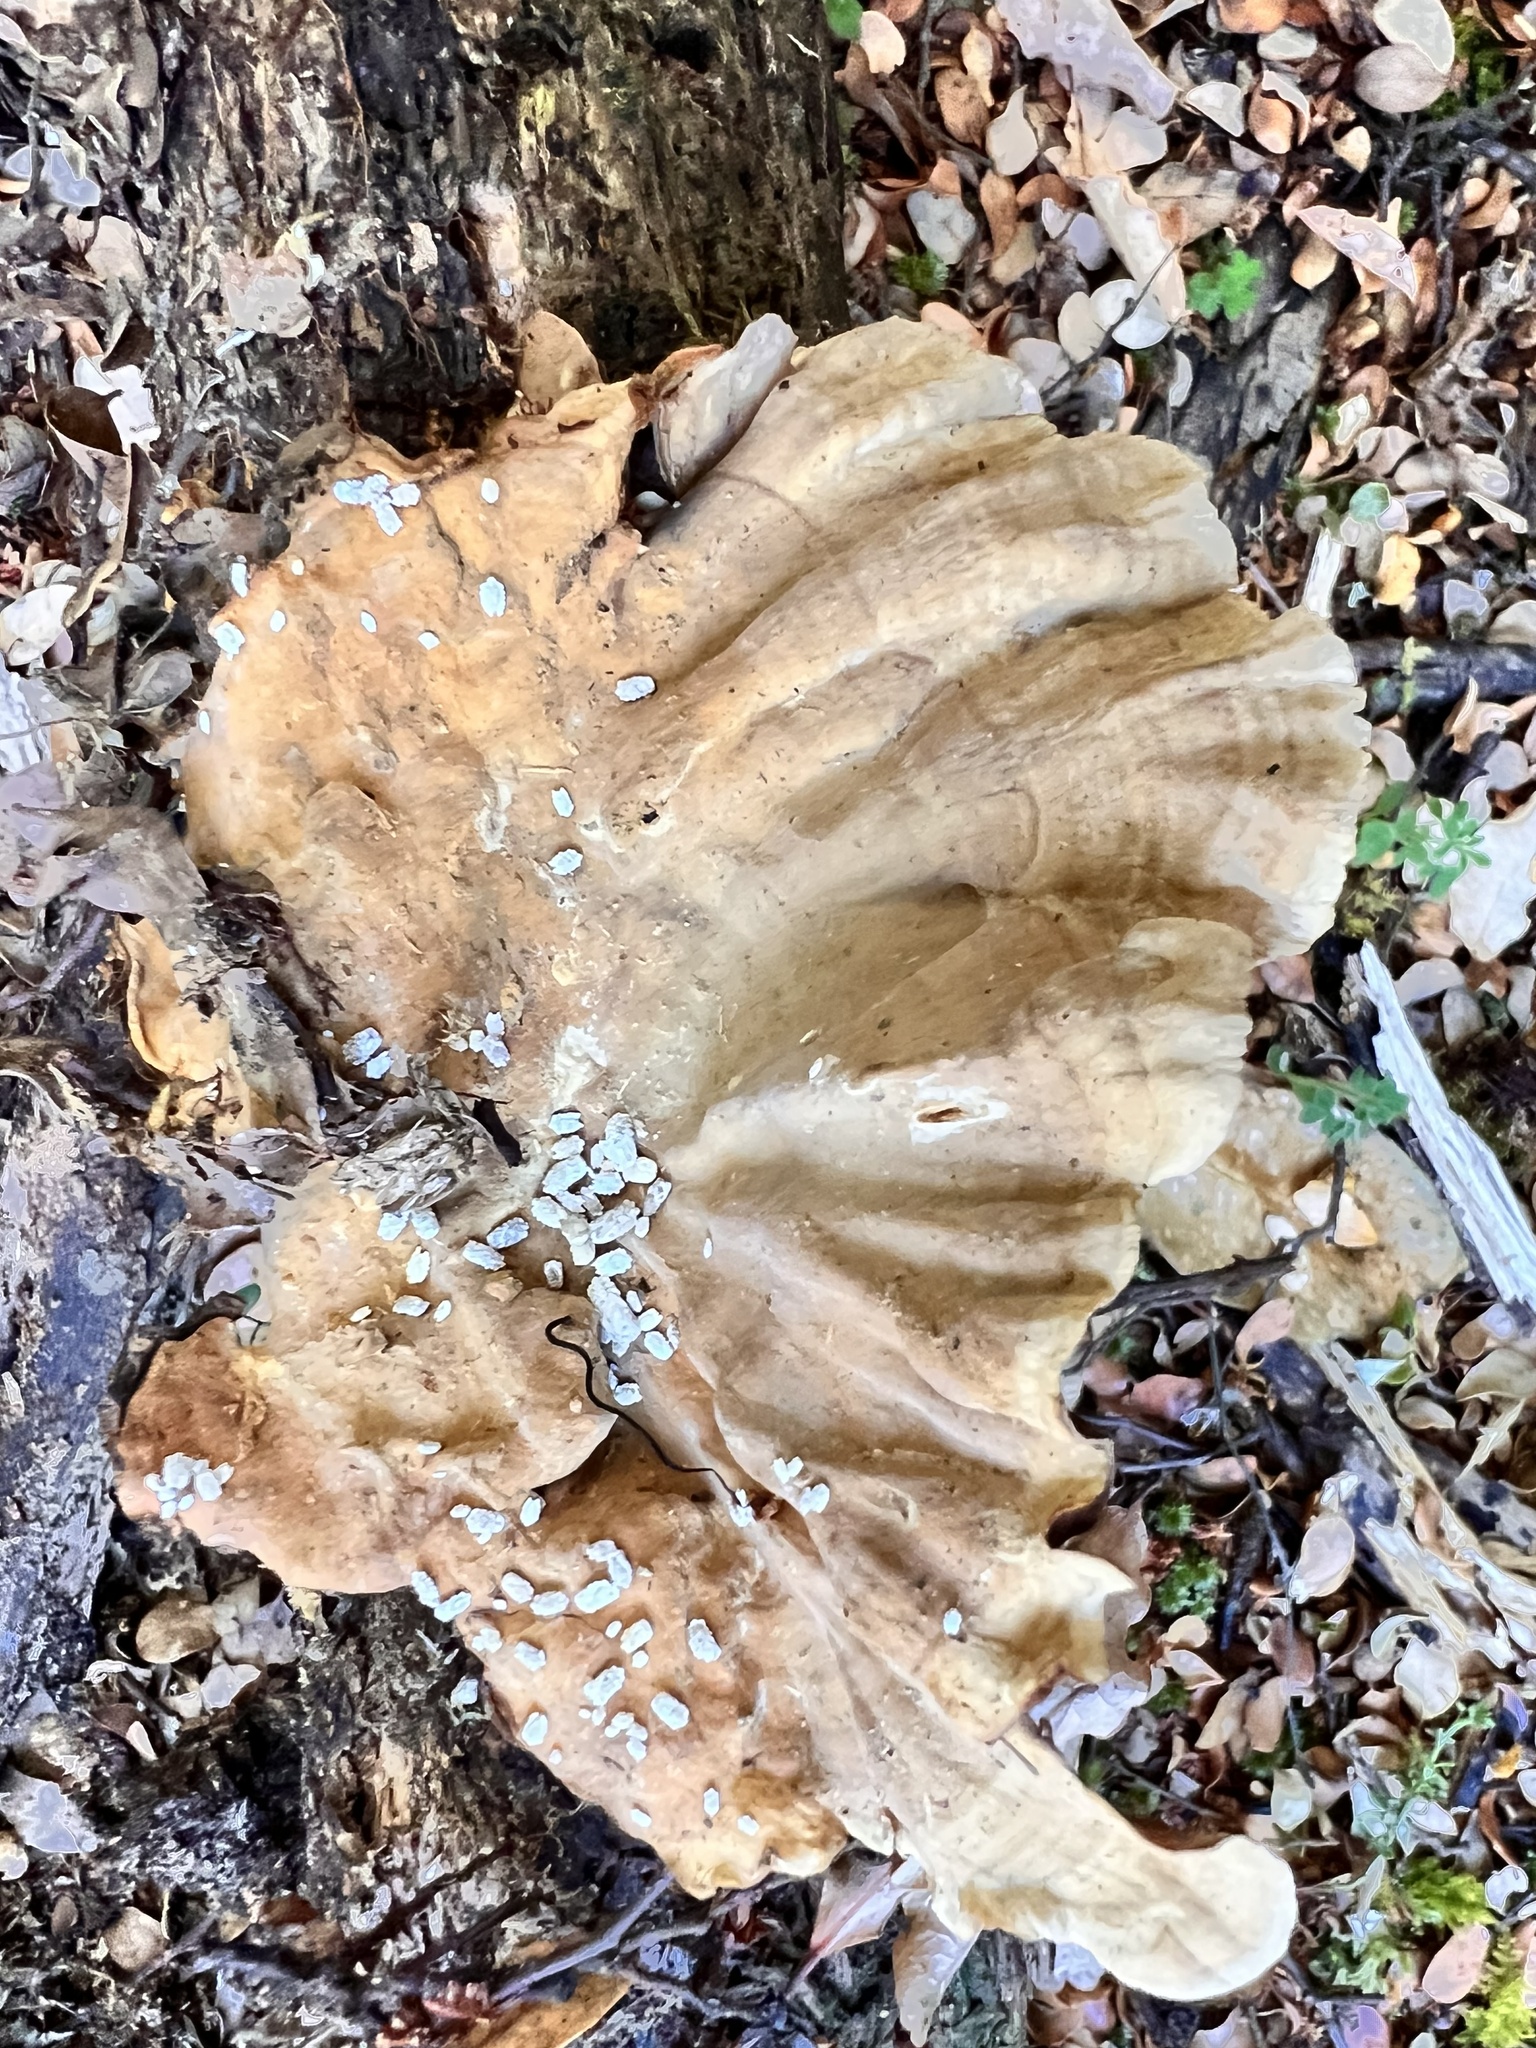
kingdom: Fungi
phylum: Basidiomycota
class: Agaricomycetes
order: Russulales
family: Stereaceae
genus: Stereum
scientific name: Stereum ostrea
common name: False turkeytail
